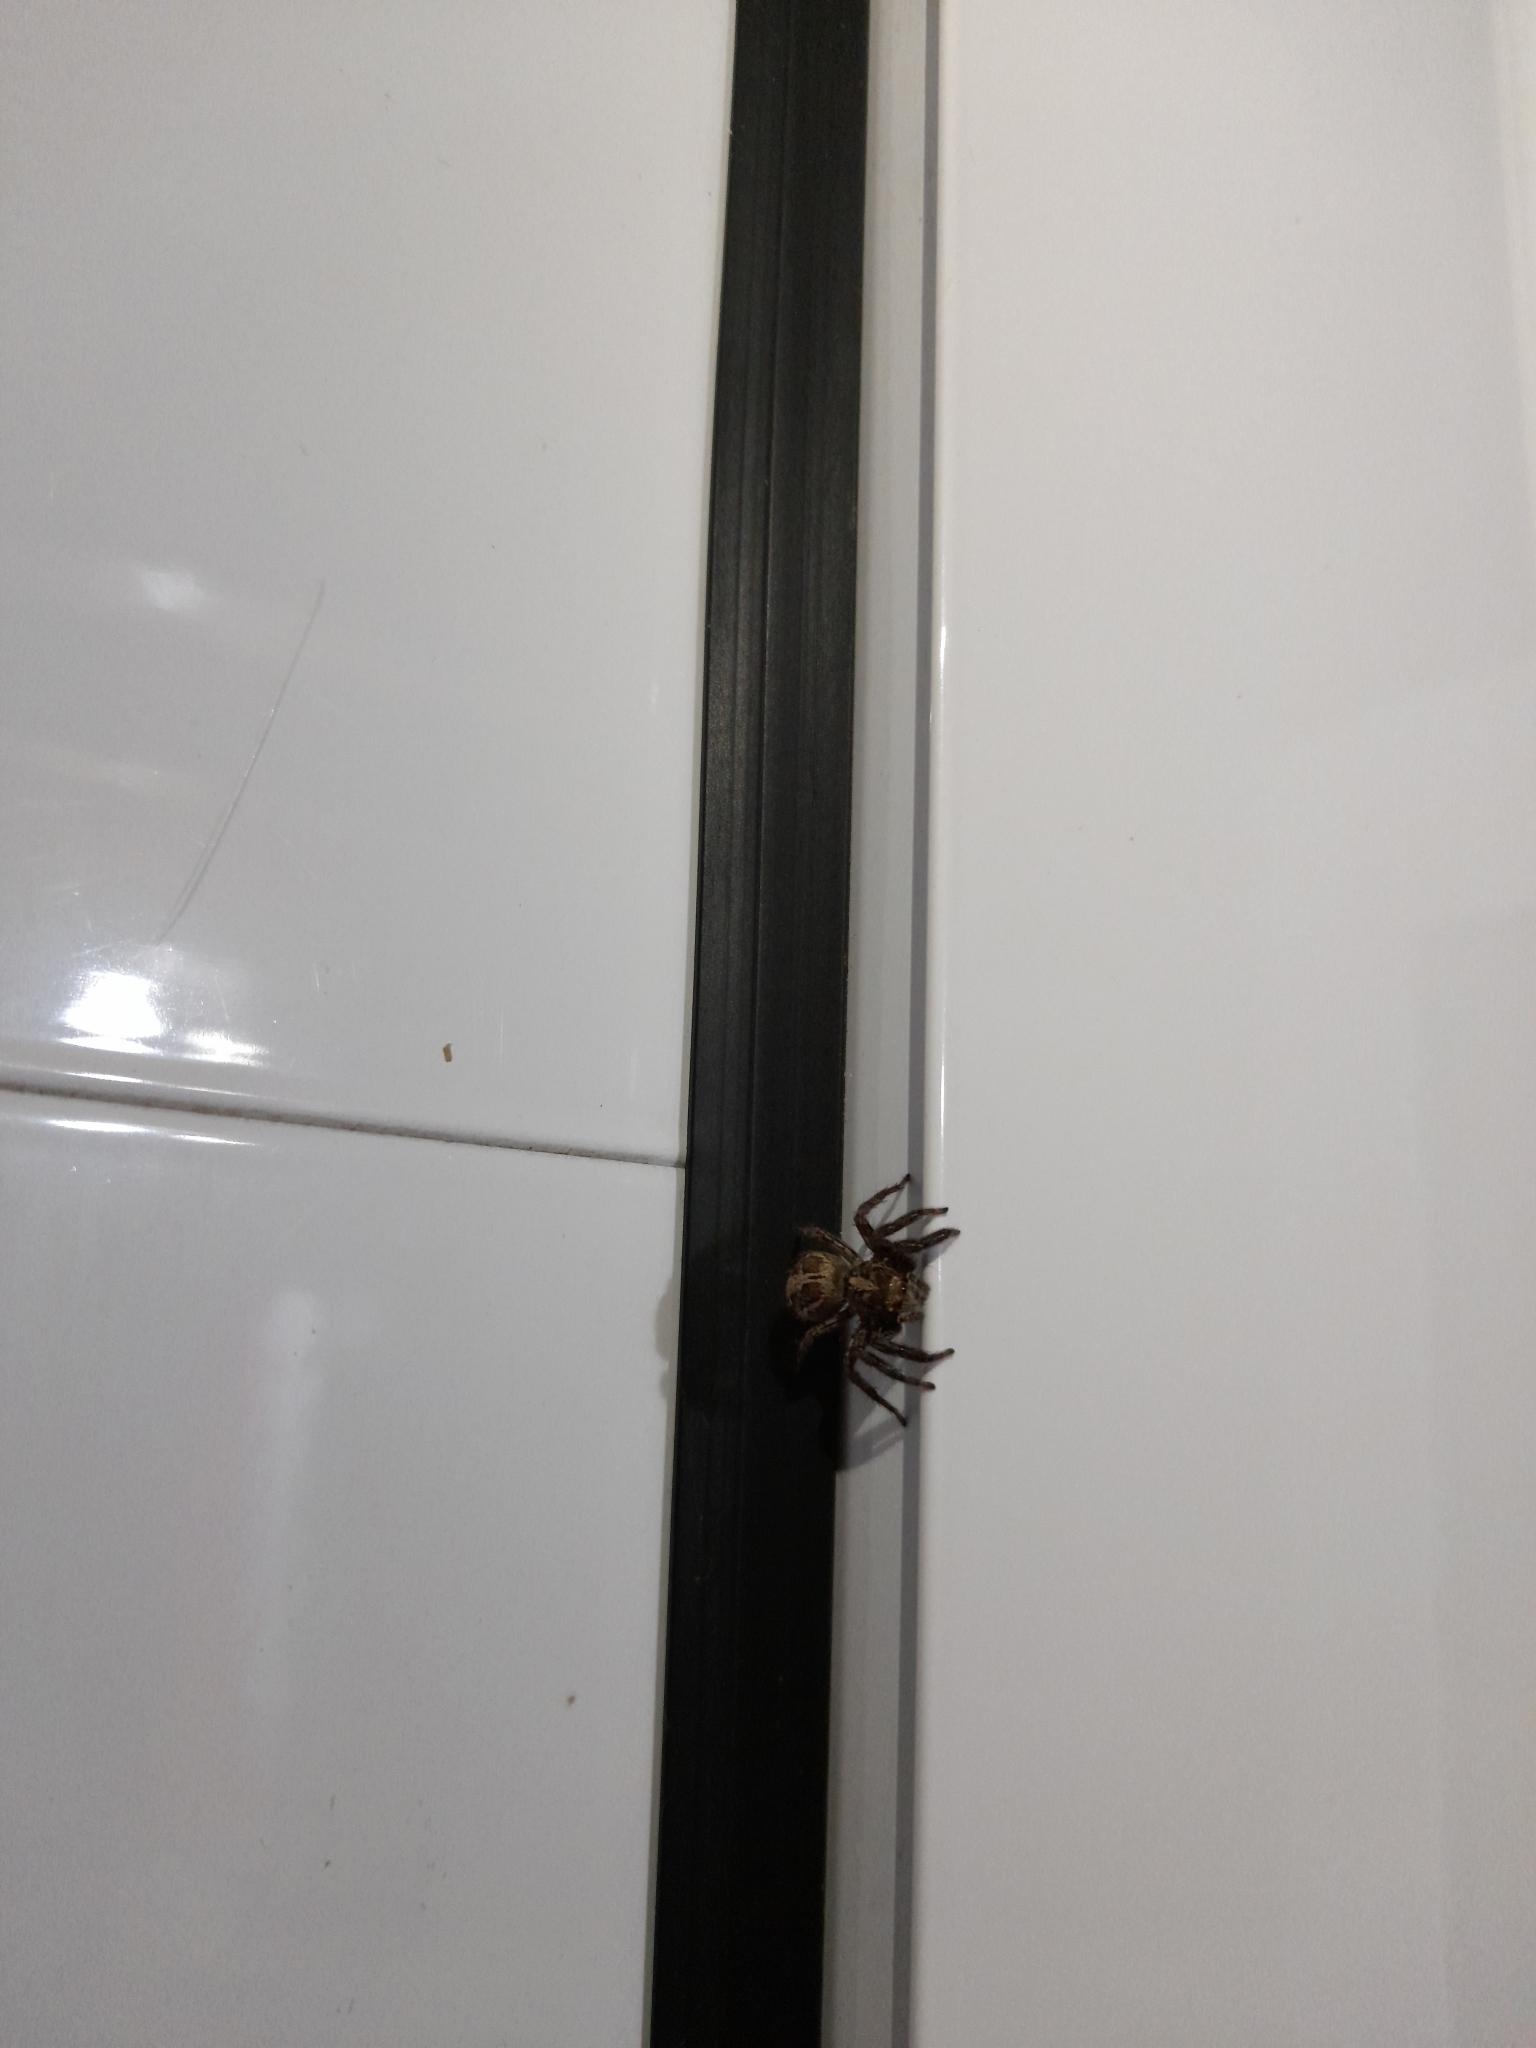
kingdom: Animalia
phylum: Arthropoda
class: Arachnida
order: Araneae
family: Salticidae
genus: Plexippus
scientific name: Plexippus paykulli
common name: Pantropical jumper
